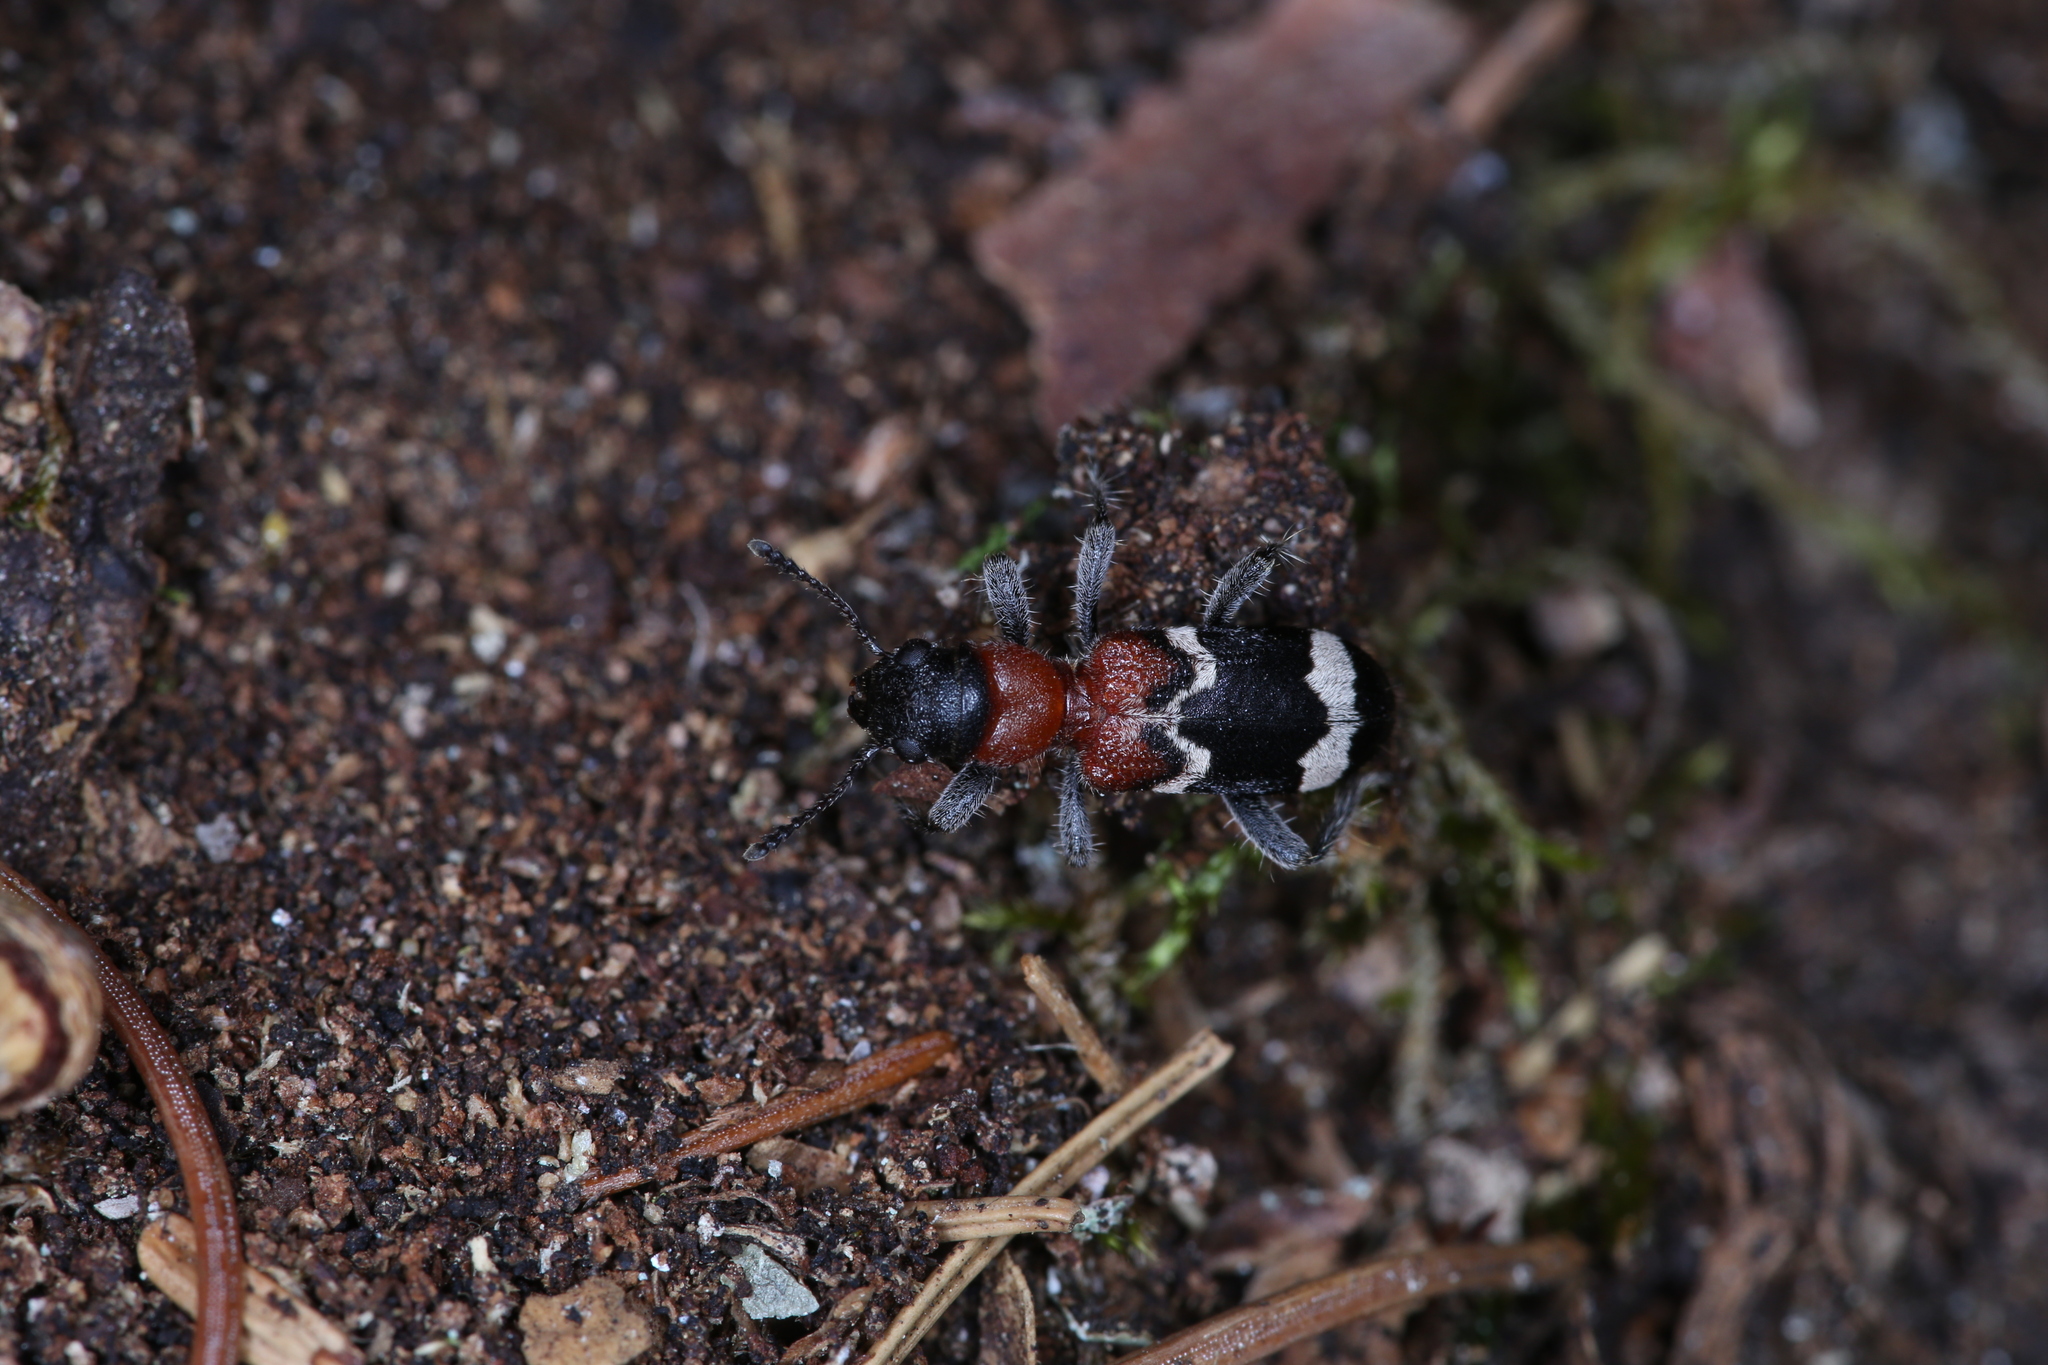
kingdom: Animalia
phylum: Arthropoda
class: Insecta
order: Coleoptera
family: Cleridae
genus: Thanasimus
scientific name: Thanasimus formicarius
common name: Ant beetle
